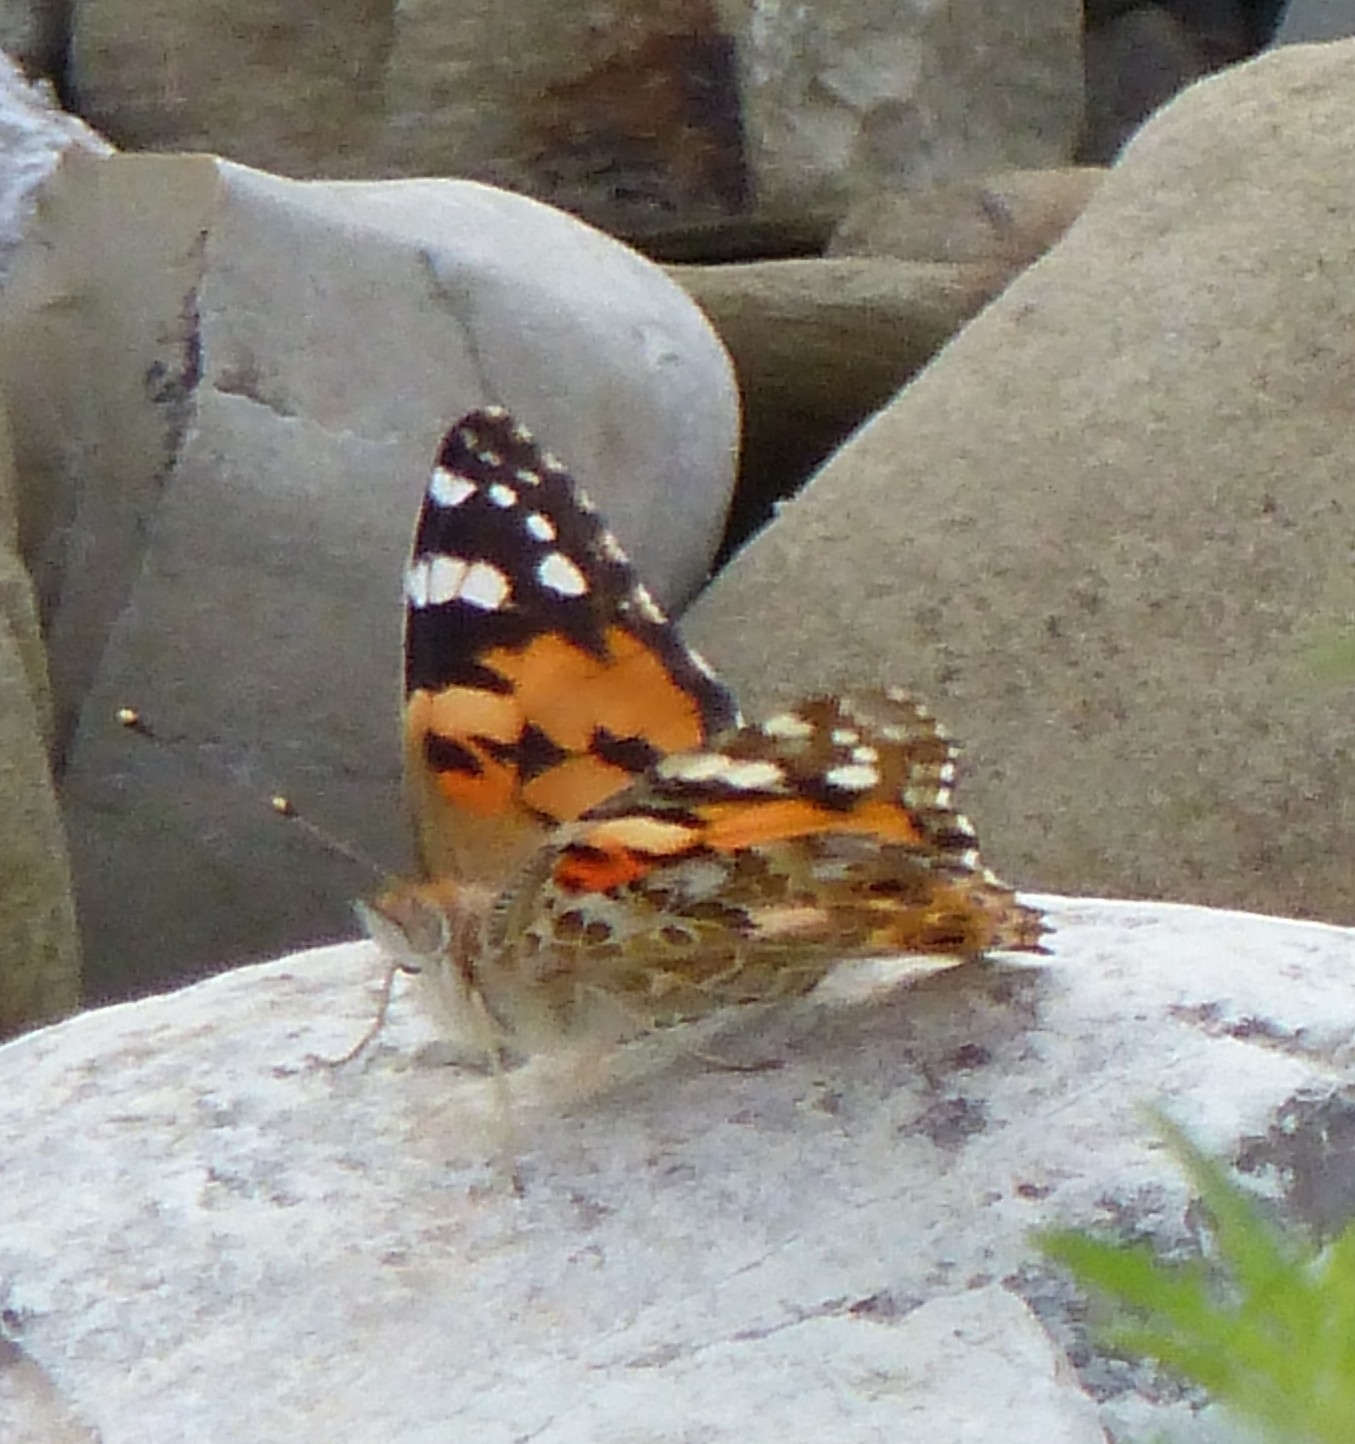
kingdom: Animalia
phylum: Arthropoda
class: Insecta
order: Lepidoptera
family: Nymphalidae
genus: Vanessa
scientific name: Vanessa cardui
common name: Painted lady
